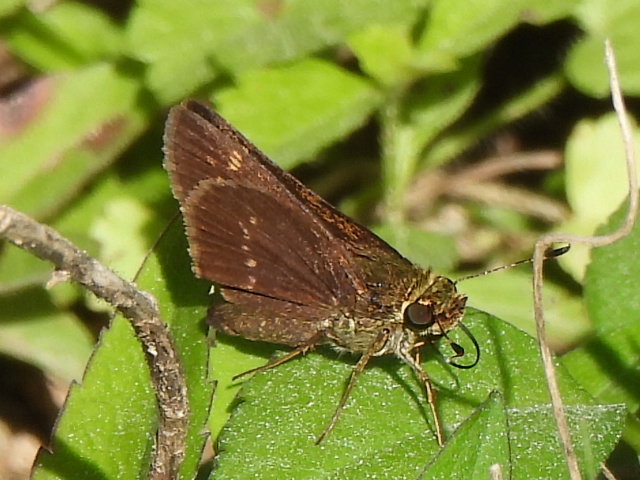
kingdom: Animalia
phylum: Arthropoda
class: Insecta
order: Lepidoptera
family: Hesperiidae
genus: Vernia
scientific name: Vernia verna
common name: Little glassywing
